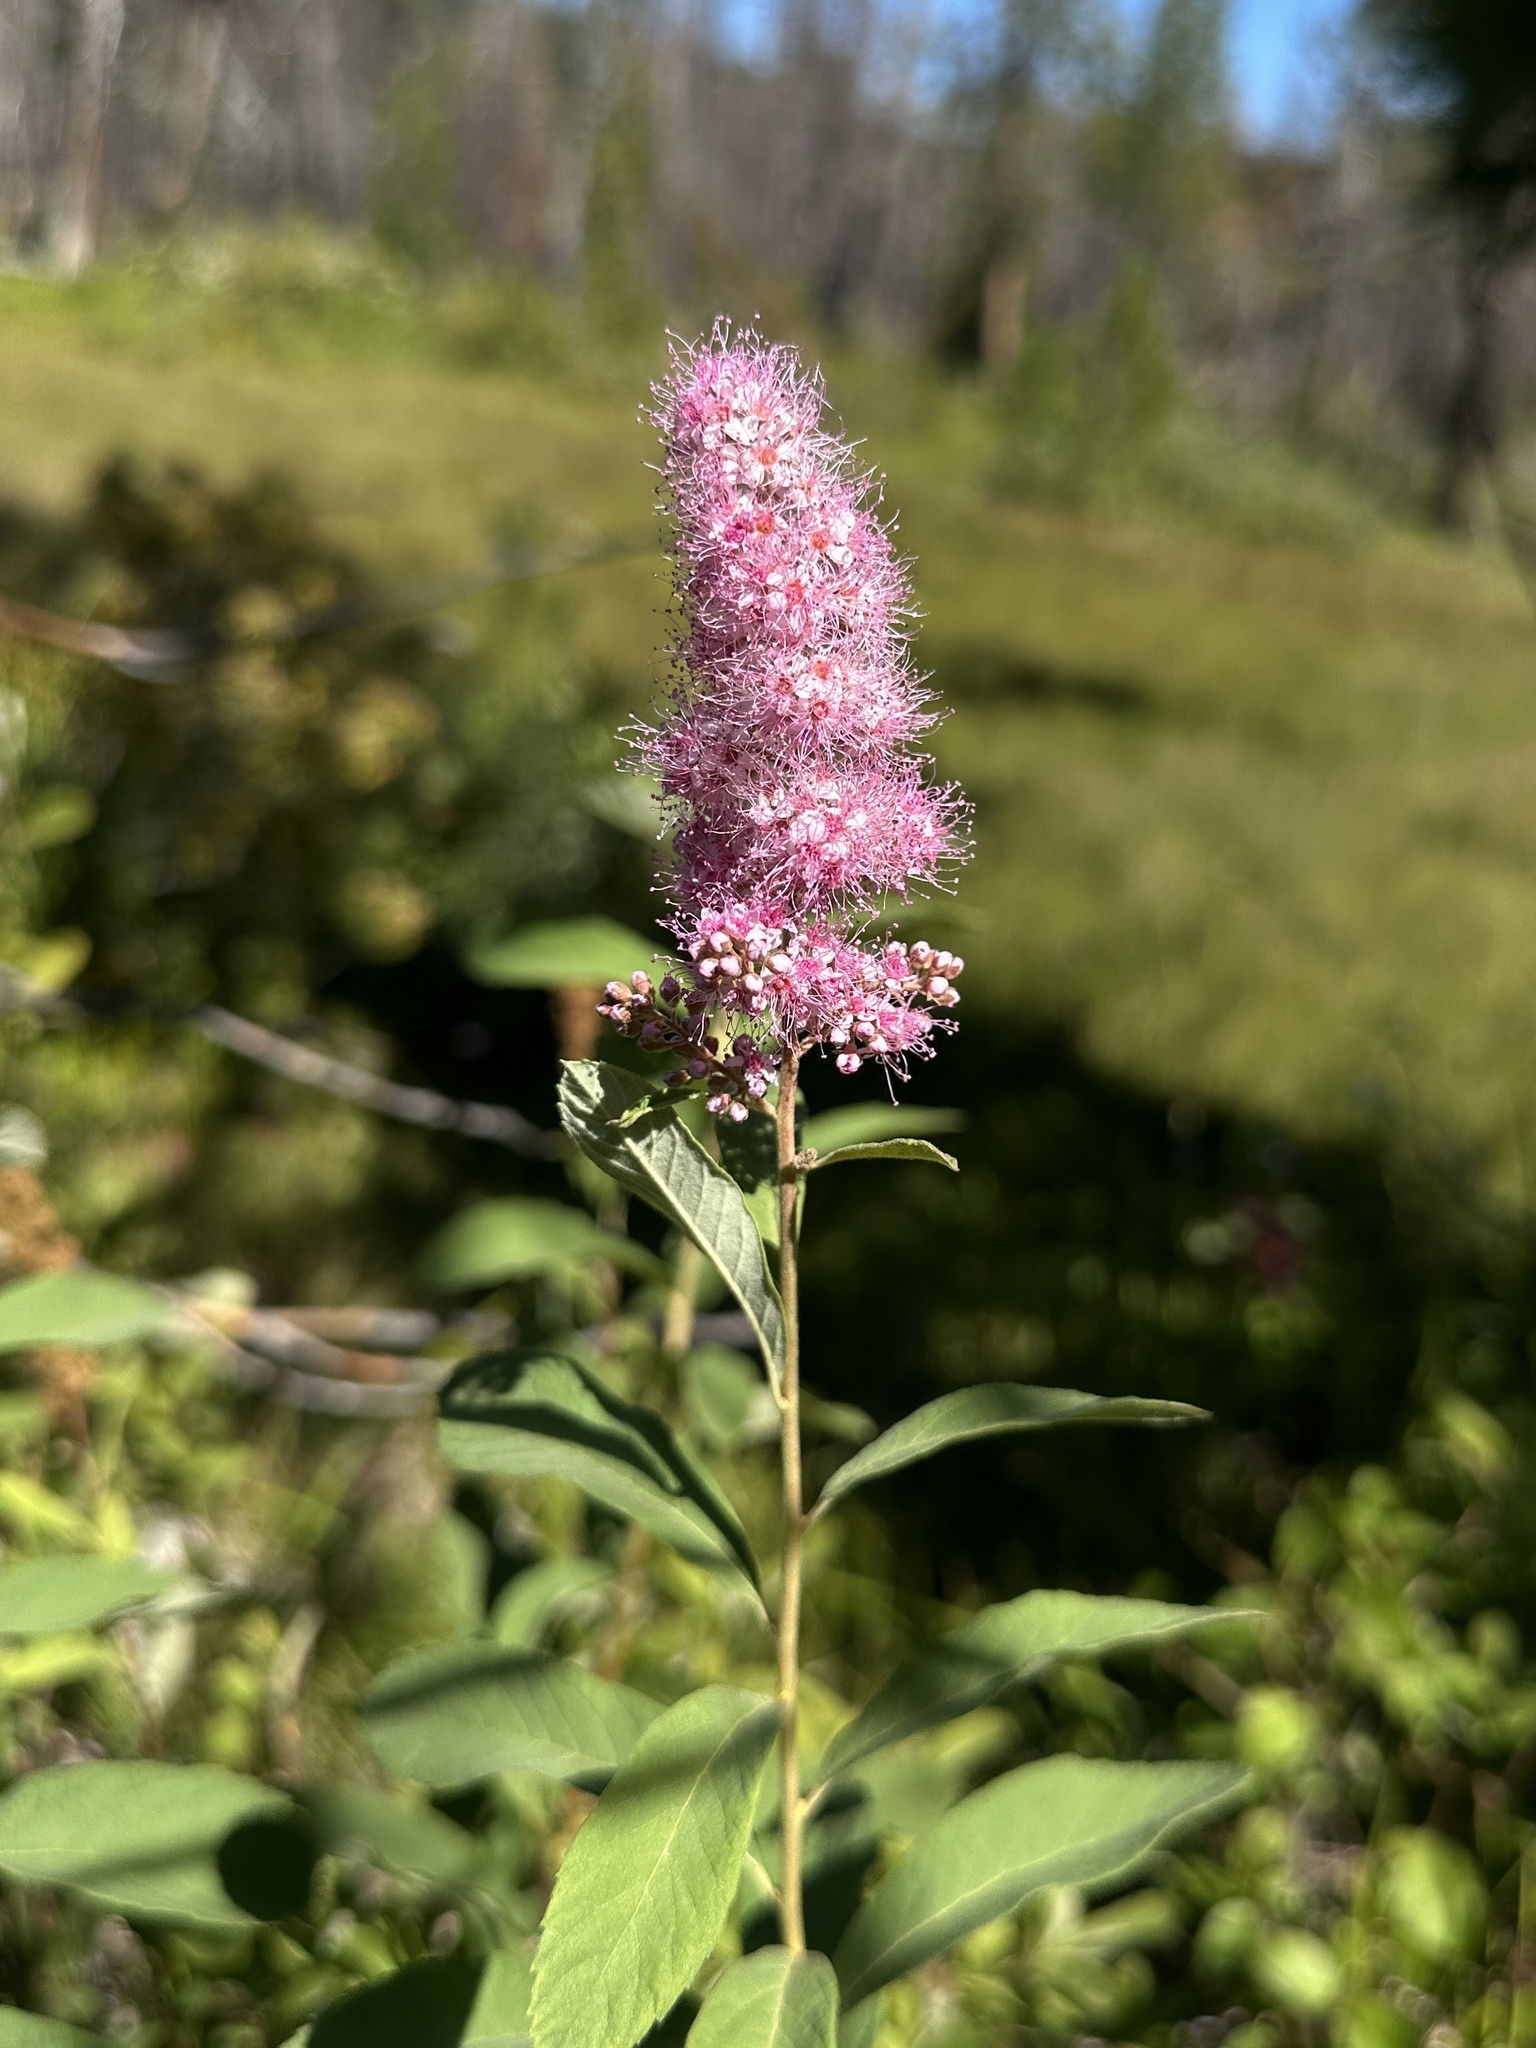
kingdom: Plantae
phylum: Tracheophyta
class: Magnoliopsida
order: Rosales
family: Rosaceae
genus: Spiraea
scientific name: Spiraea douglasii
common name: Steeplebush
